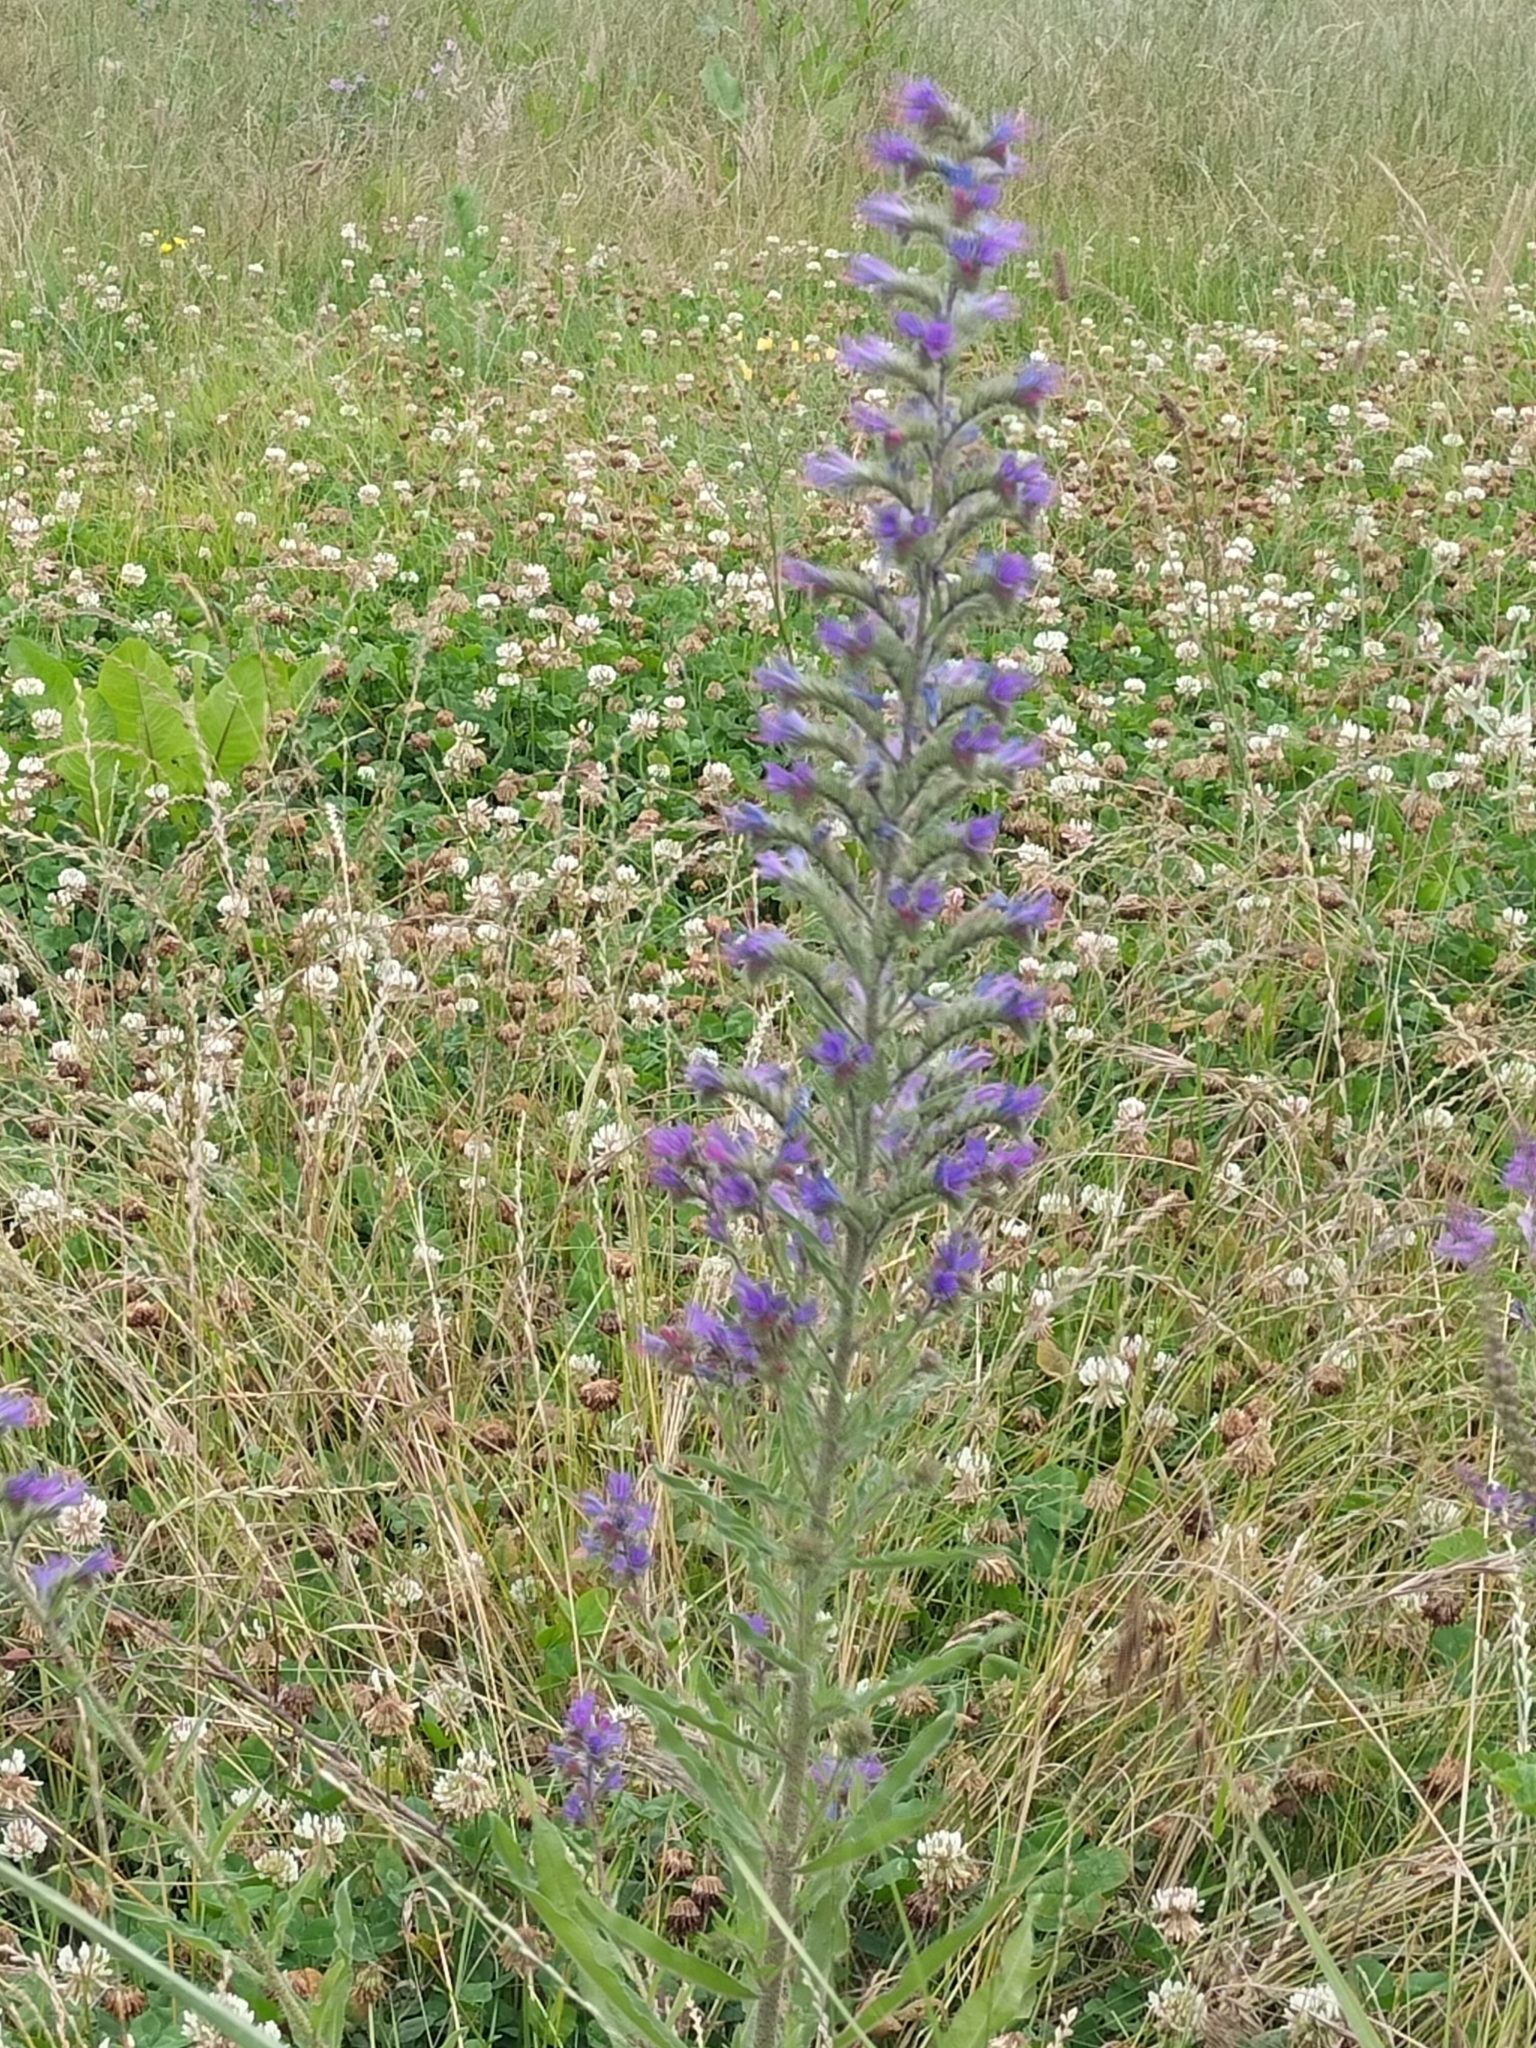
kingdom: Plantae
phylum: Tracheophyta
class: Magnoliopsida
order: Boraginales
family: Boraginaceae
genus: Echium
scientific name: Echium vulgare
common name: Common viper's bugloss
